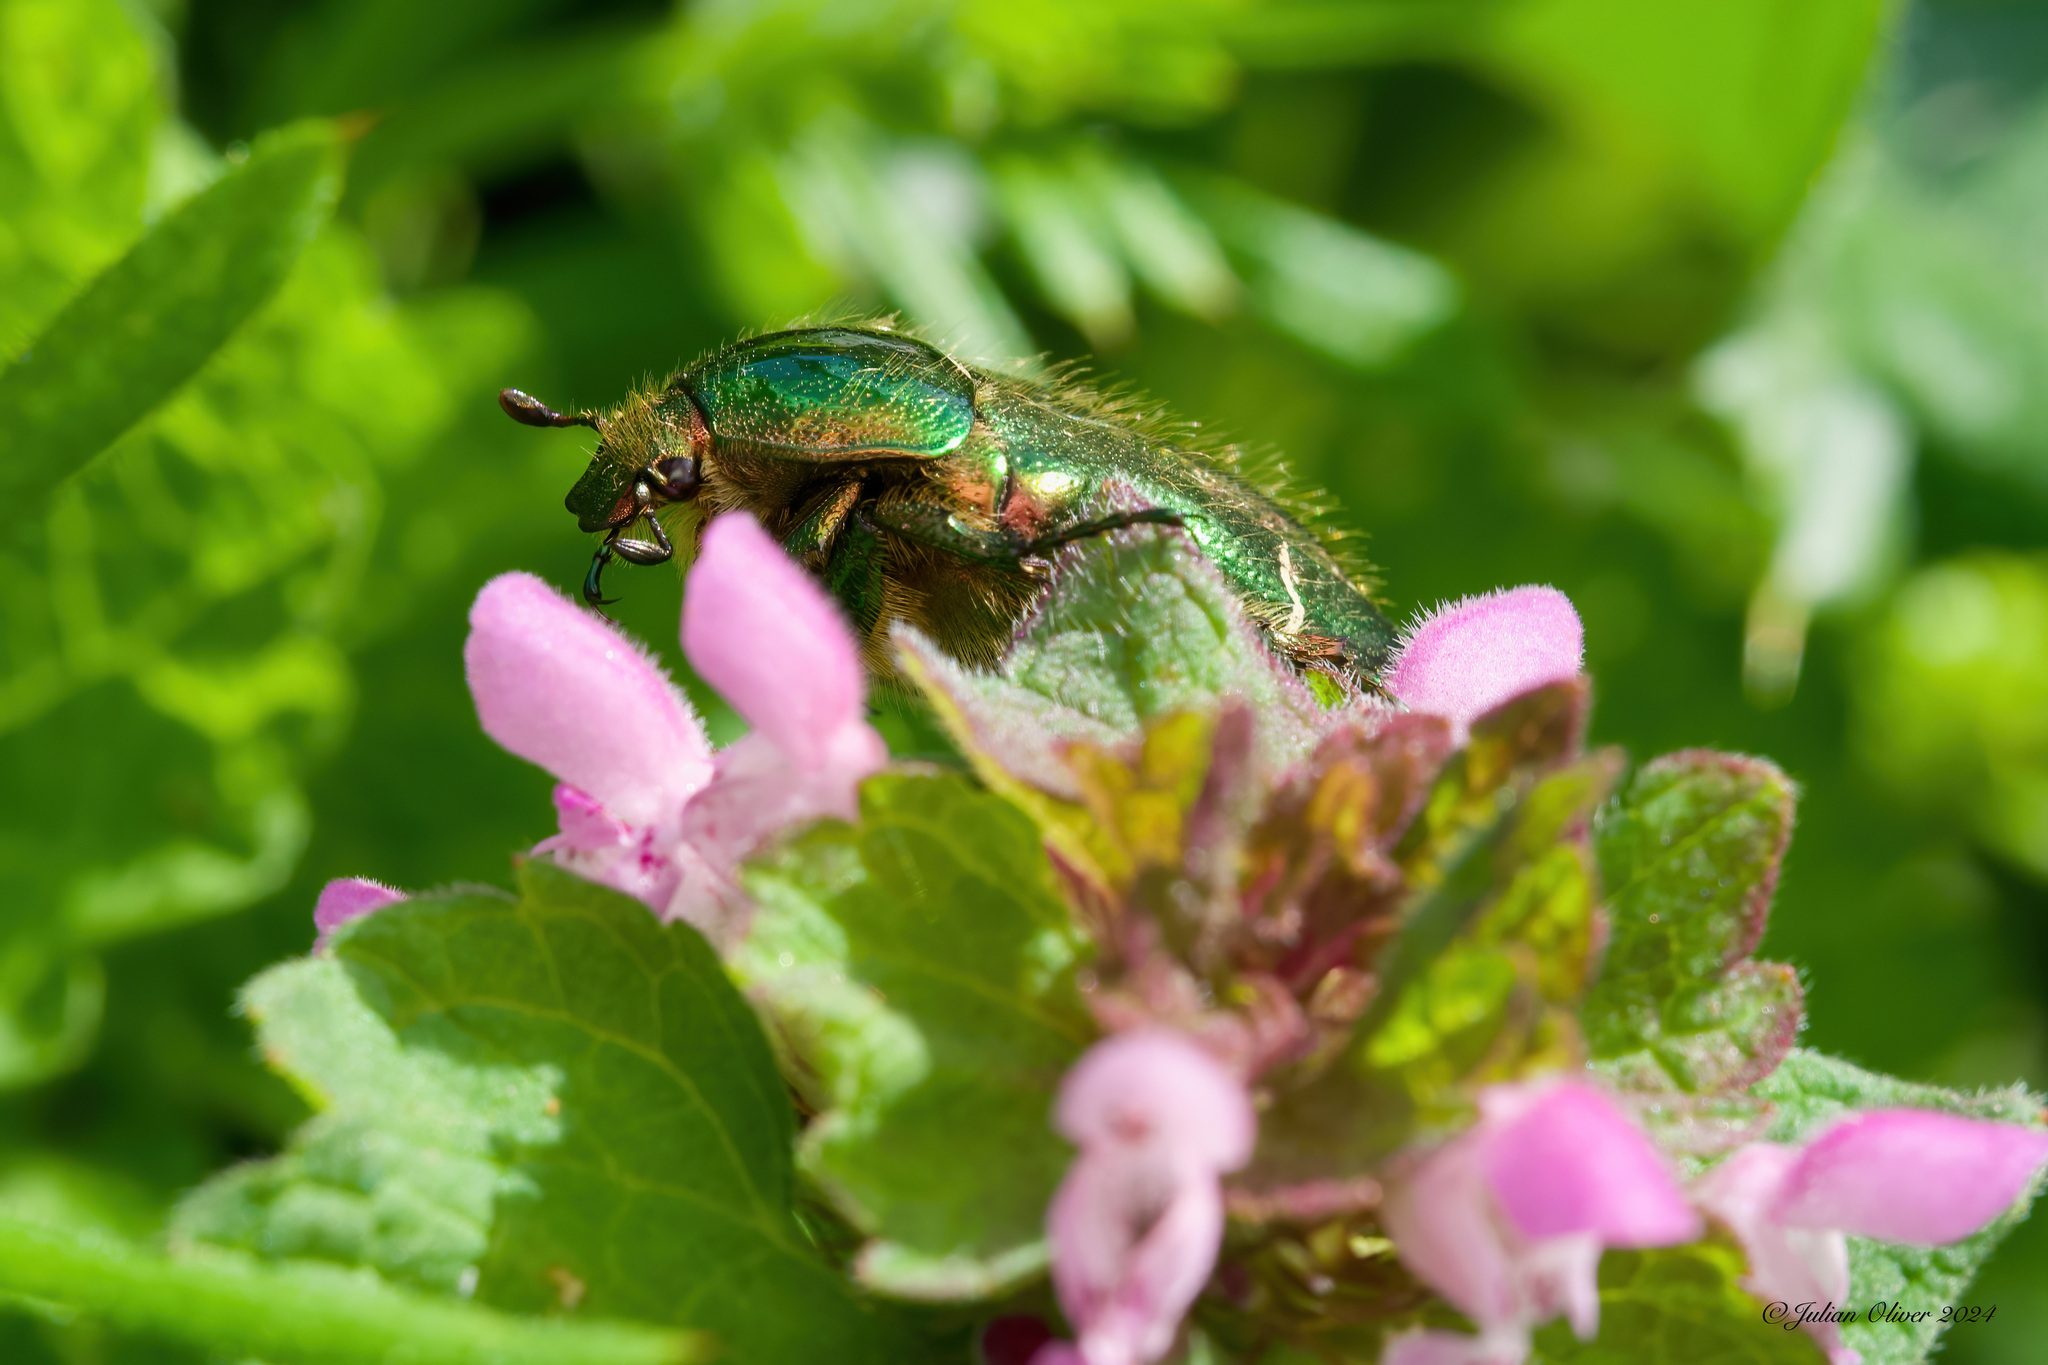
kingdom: Animalia
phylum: Arthropoda
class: Insecta
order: Coleoptera
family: Scarabaeidae
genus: Cetonia
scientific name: Cetonia aurata
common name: Rose chafer
